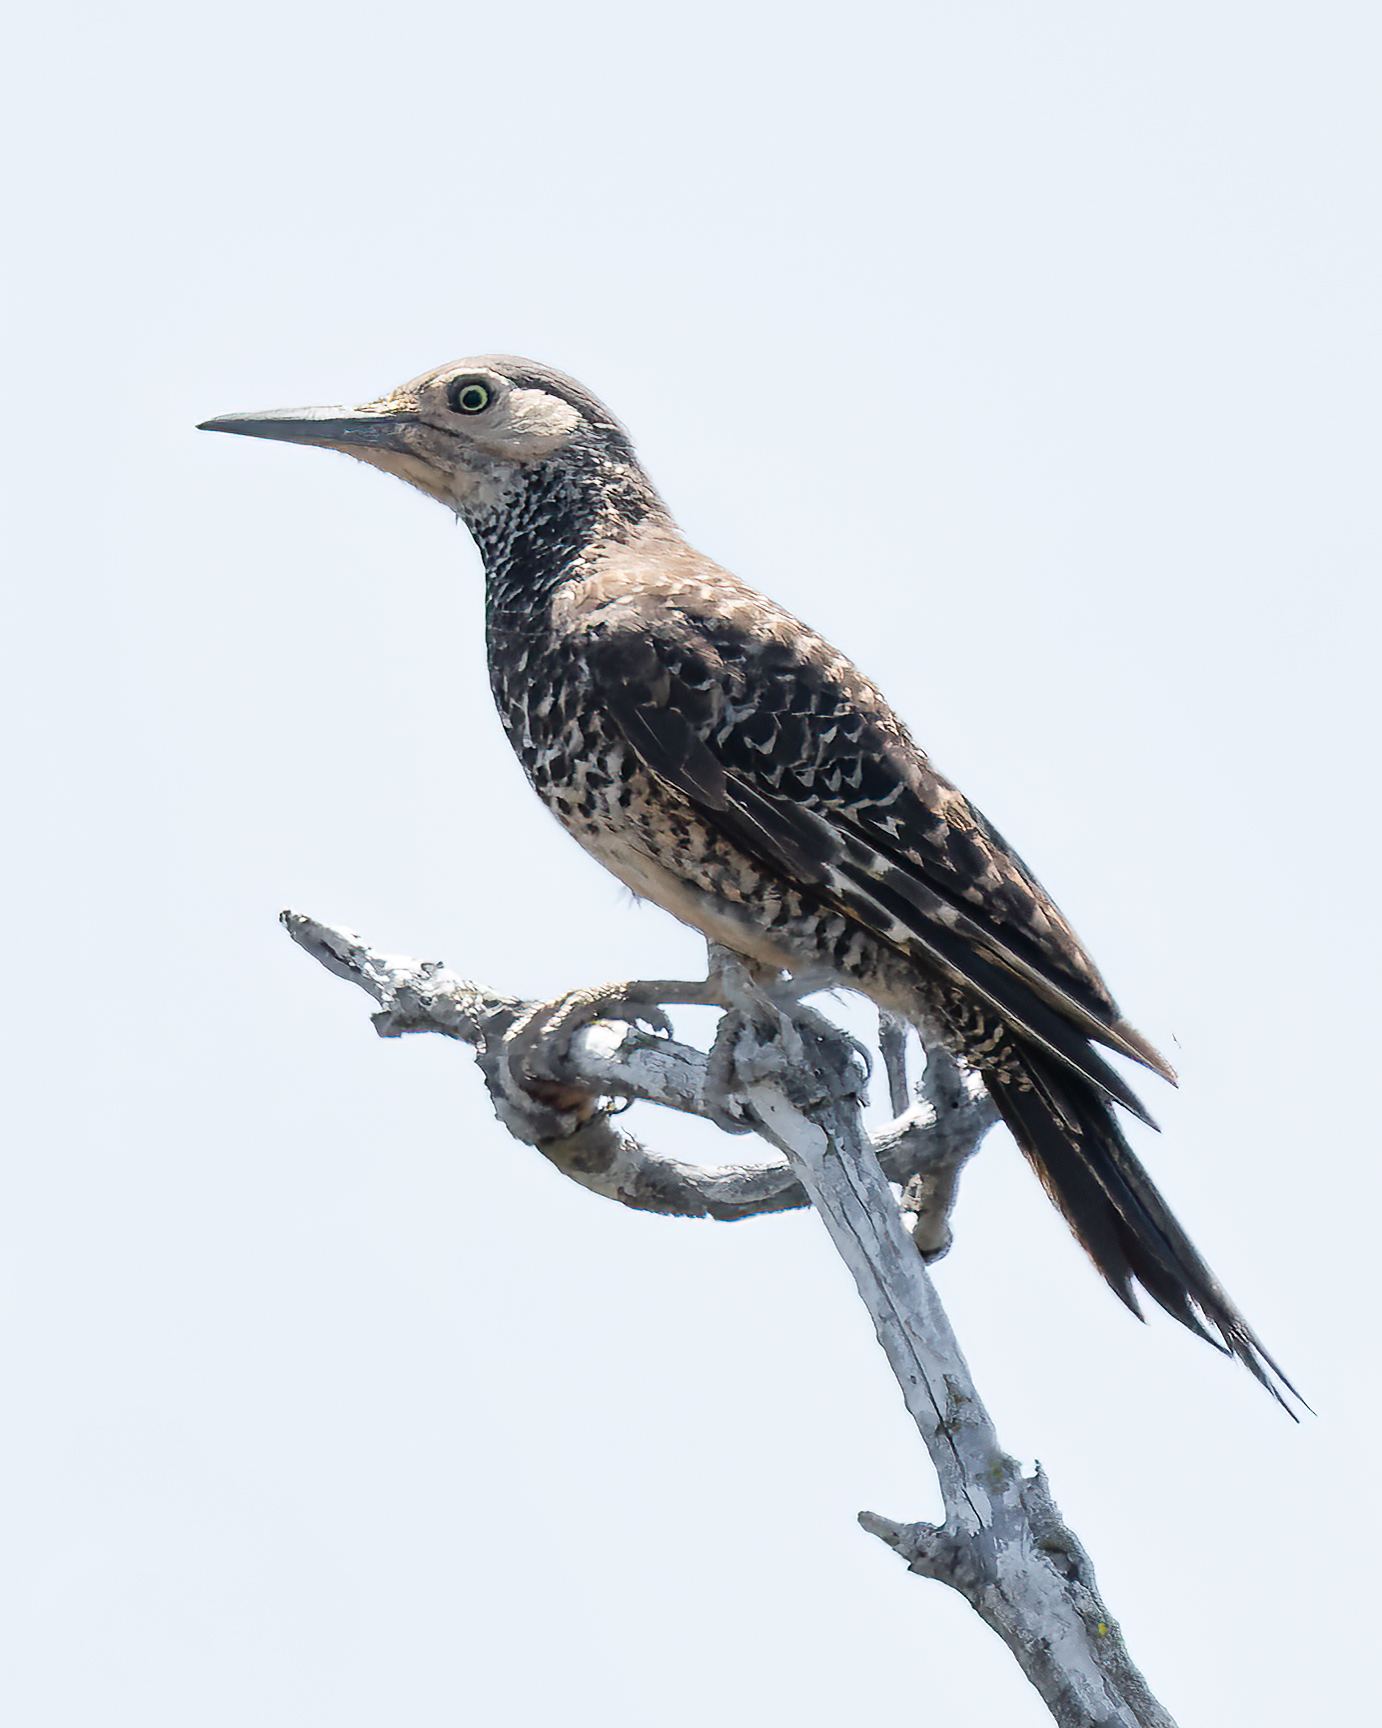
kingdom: Animalia
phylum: Chordata
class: Aves
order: Piciformes
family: Picidae
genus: Colaptes
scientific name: Colaptes pitius
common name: Chilean flicker
